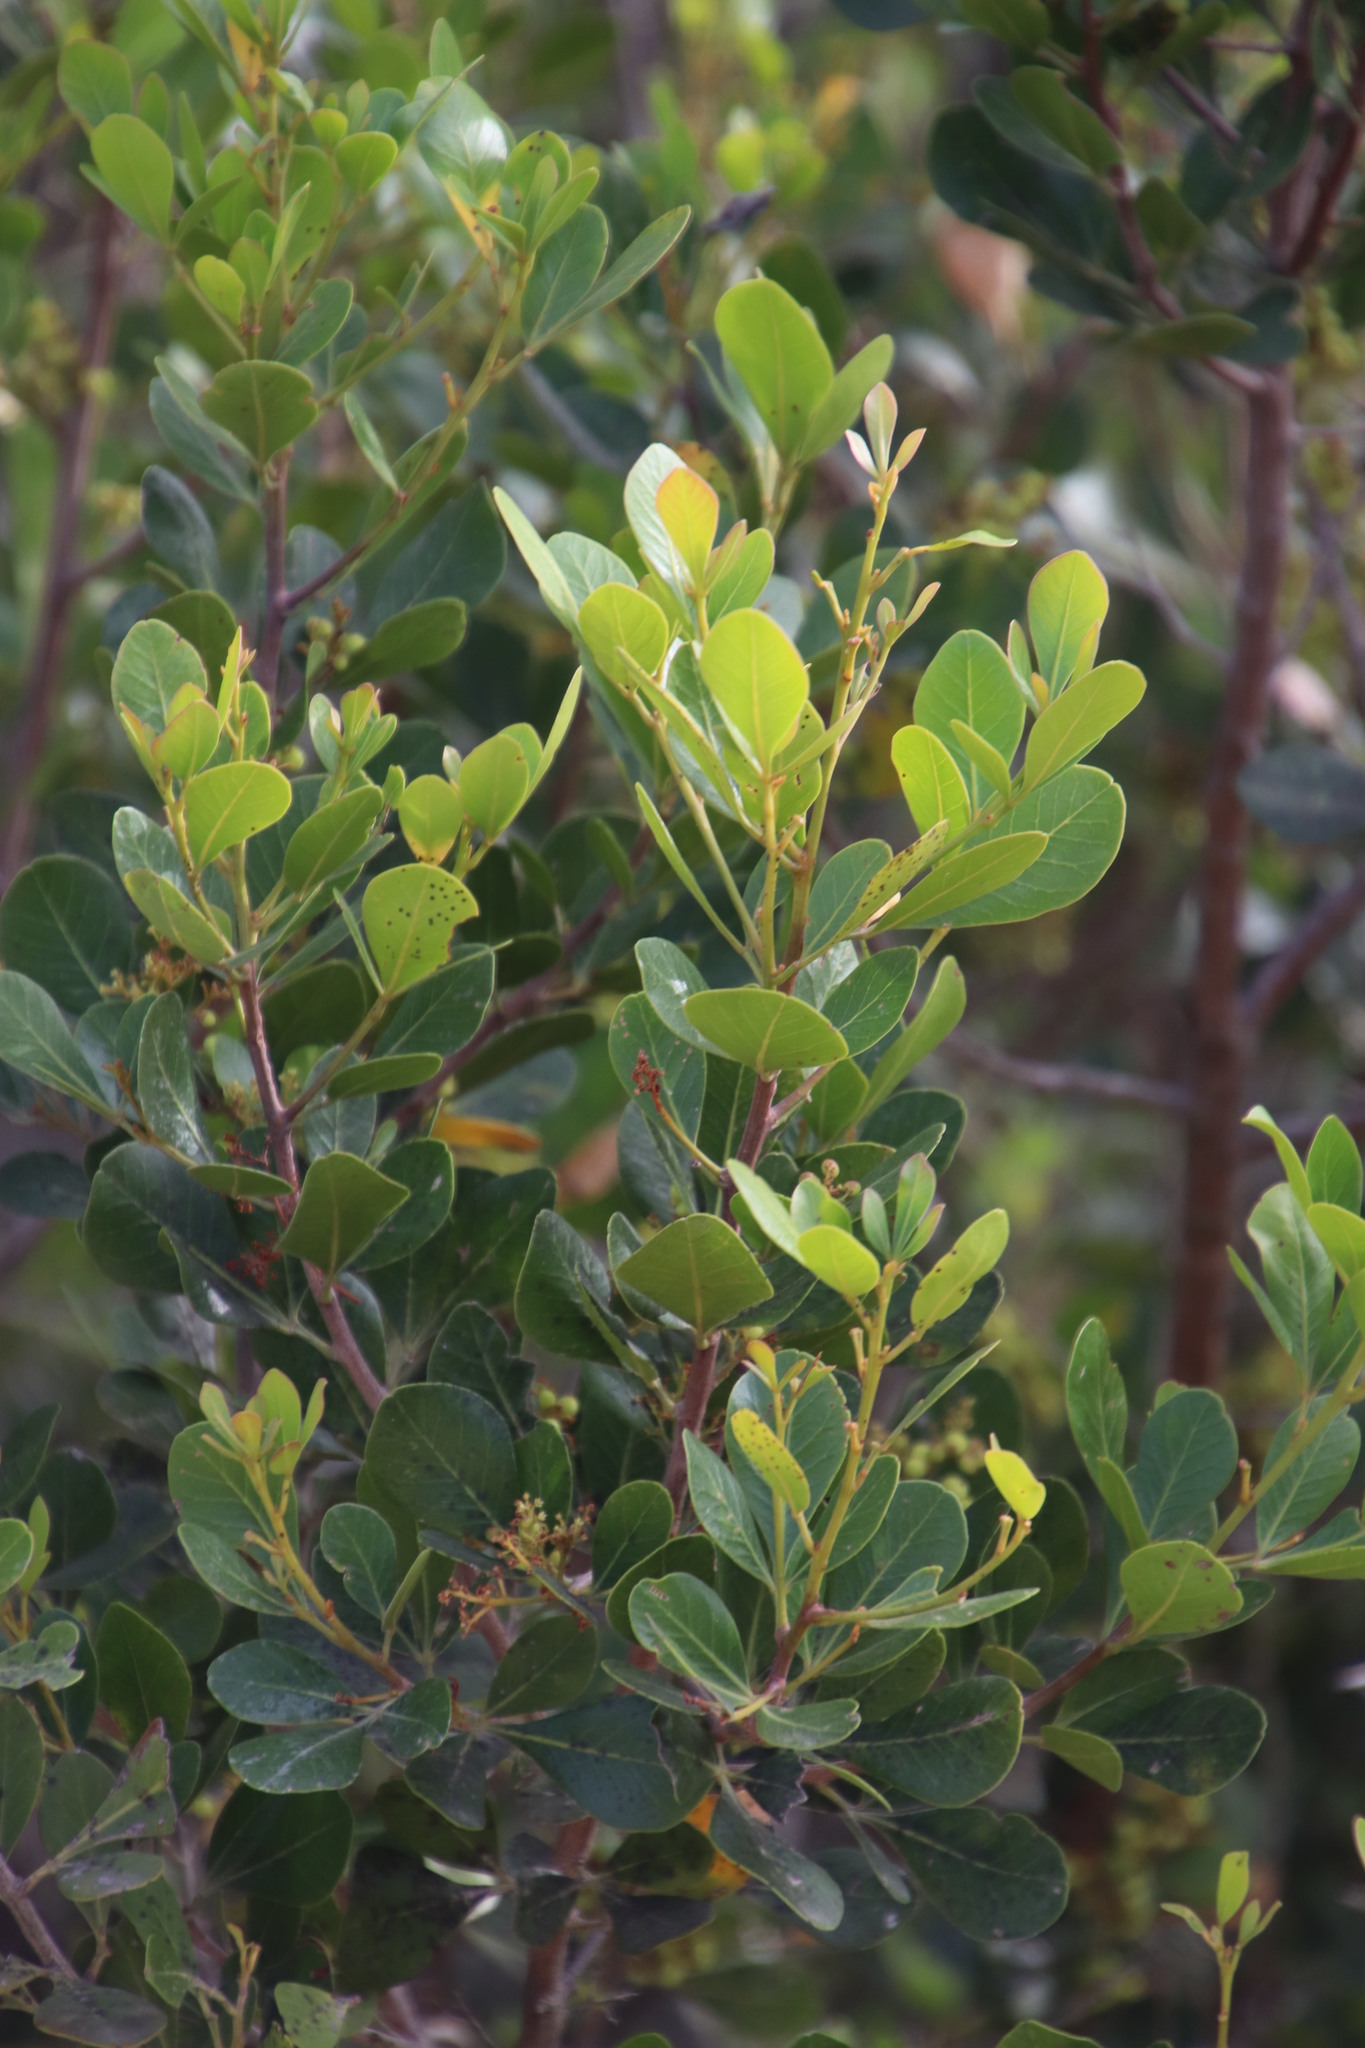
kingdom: Plantae
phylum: Tracheophyta
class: Magnoliopsida
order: Sapindales
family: Anacardiaceae
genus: Searsia
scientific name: Searsia lucida
